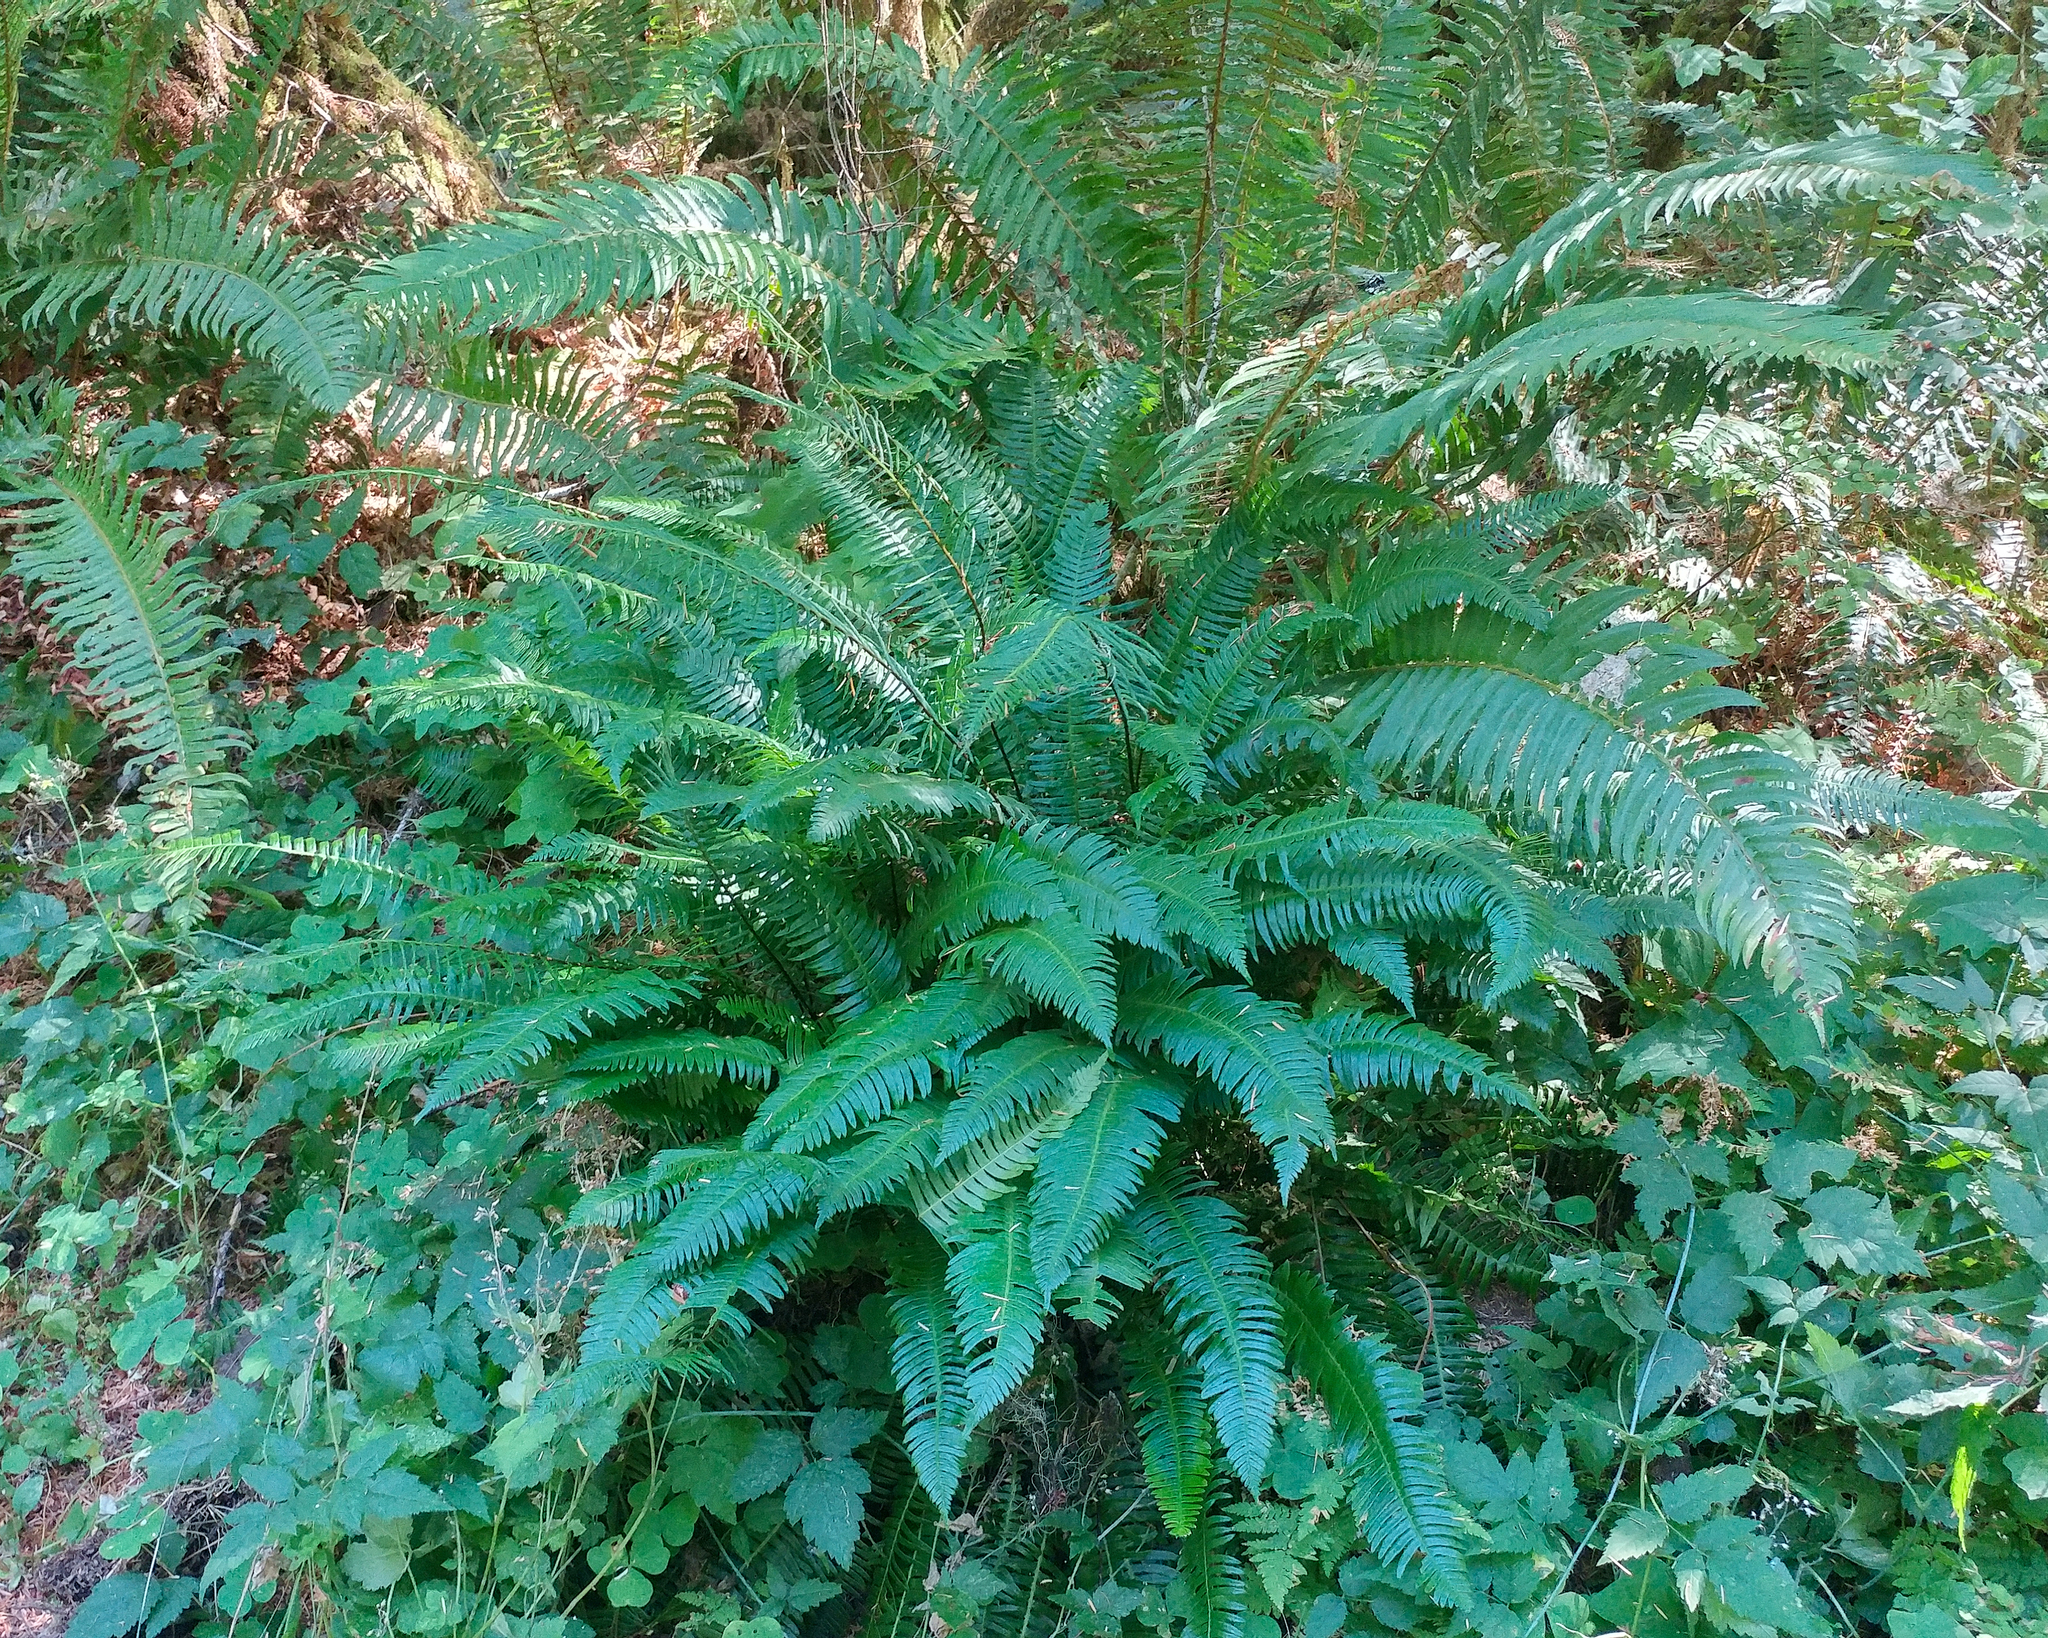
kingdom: Plantae
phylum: Tracheophyta
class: Polypodiopsida
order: Polypodiales
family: Dryopteridaceae
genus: Polystichum
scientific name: Polystichum munitum
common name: Western sword-fern
